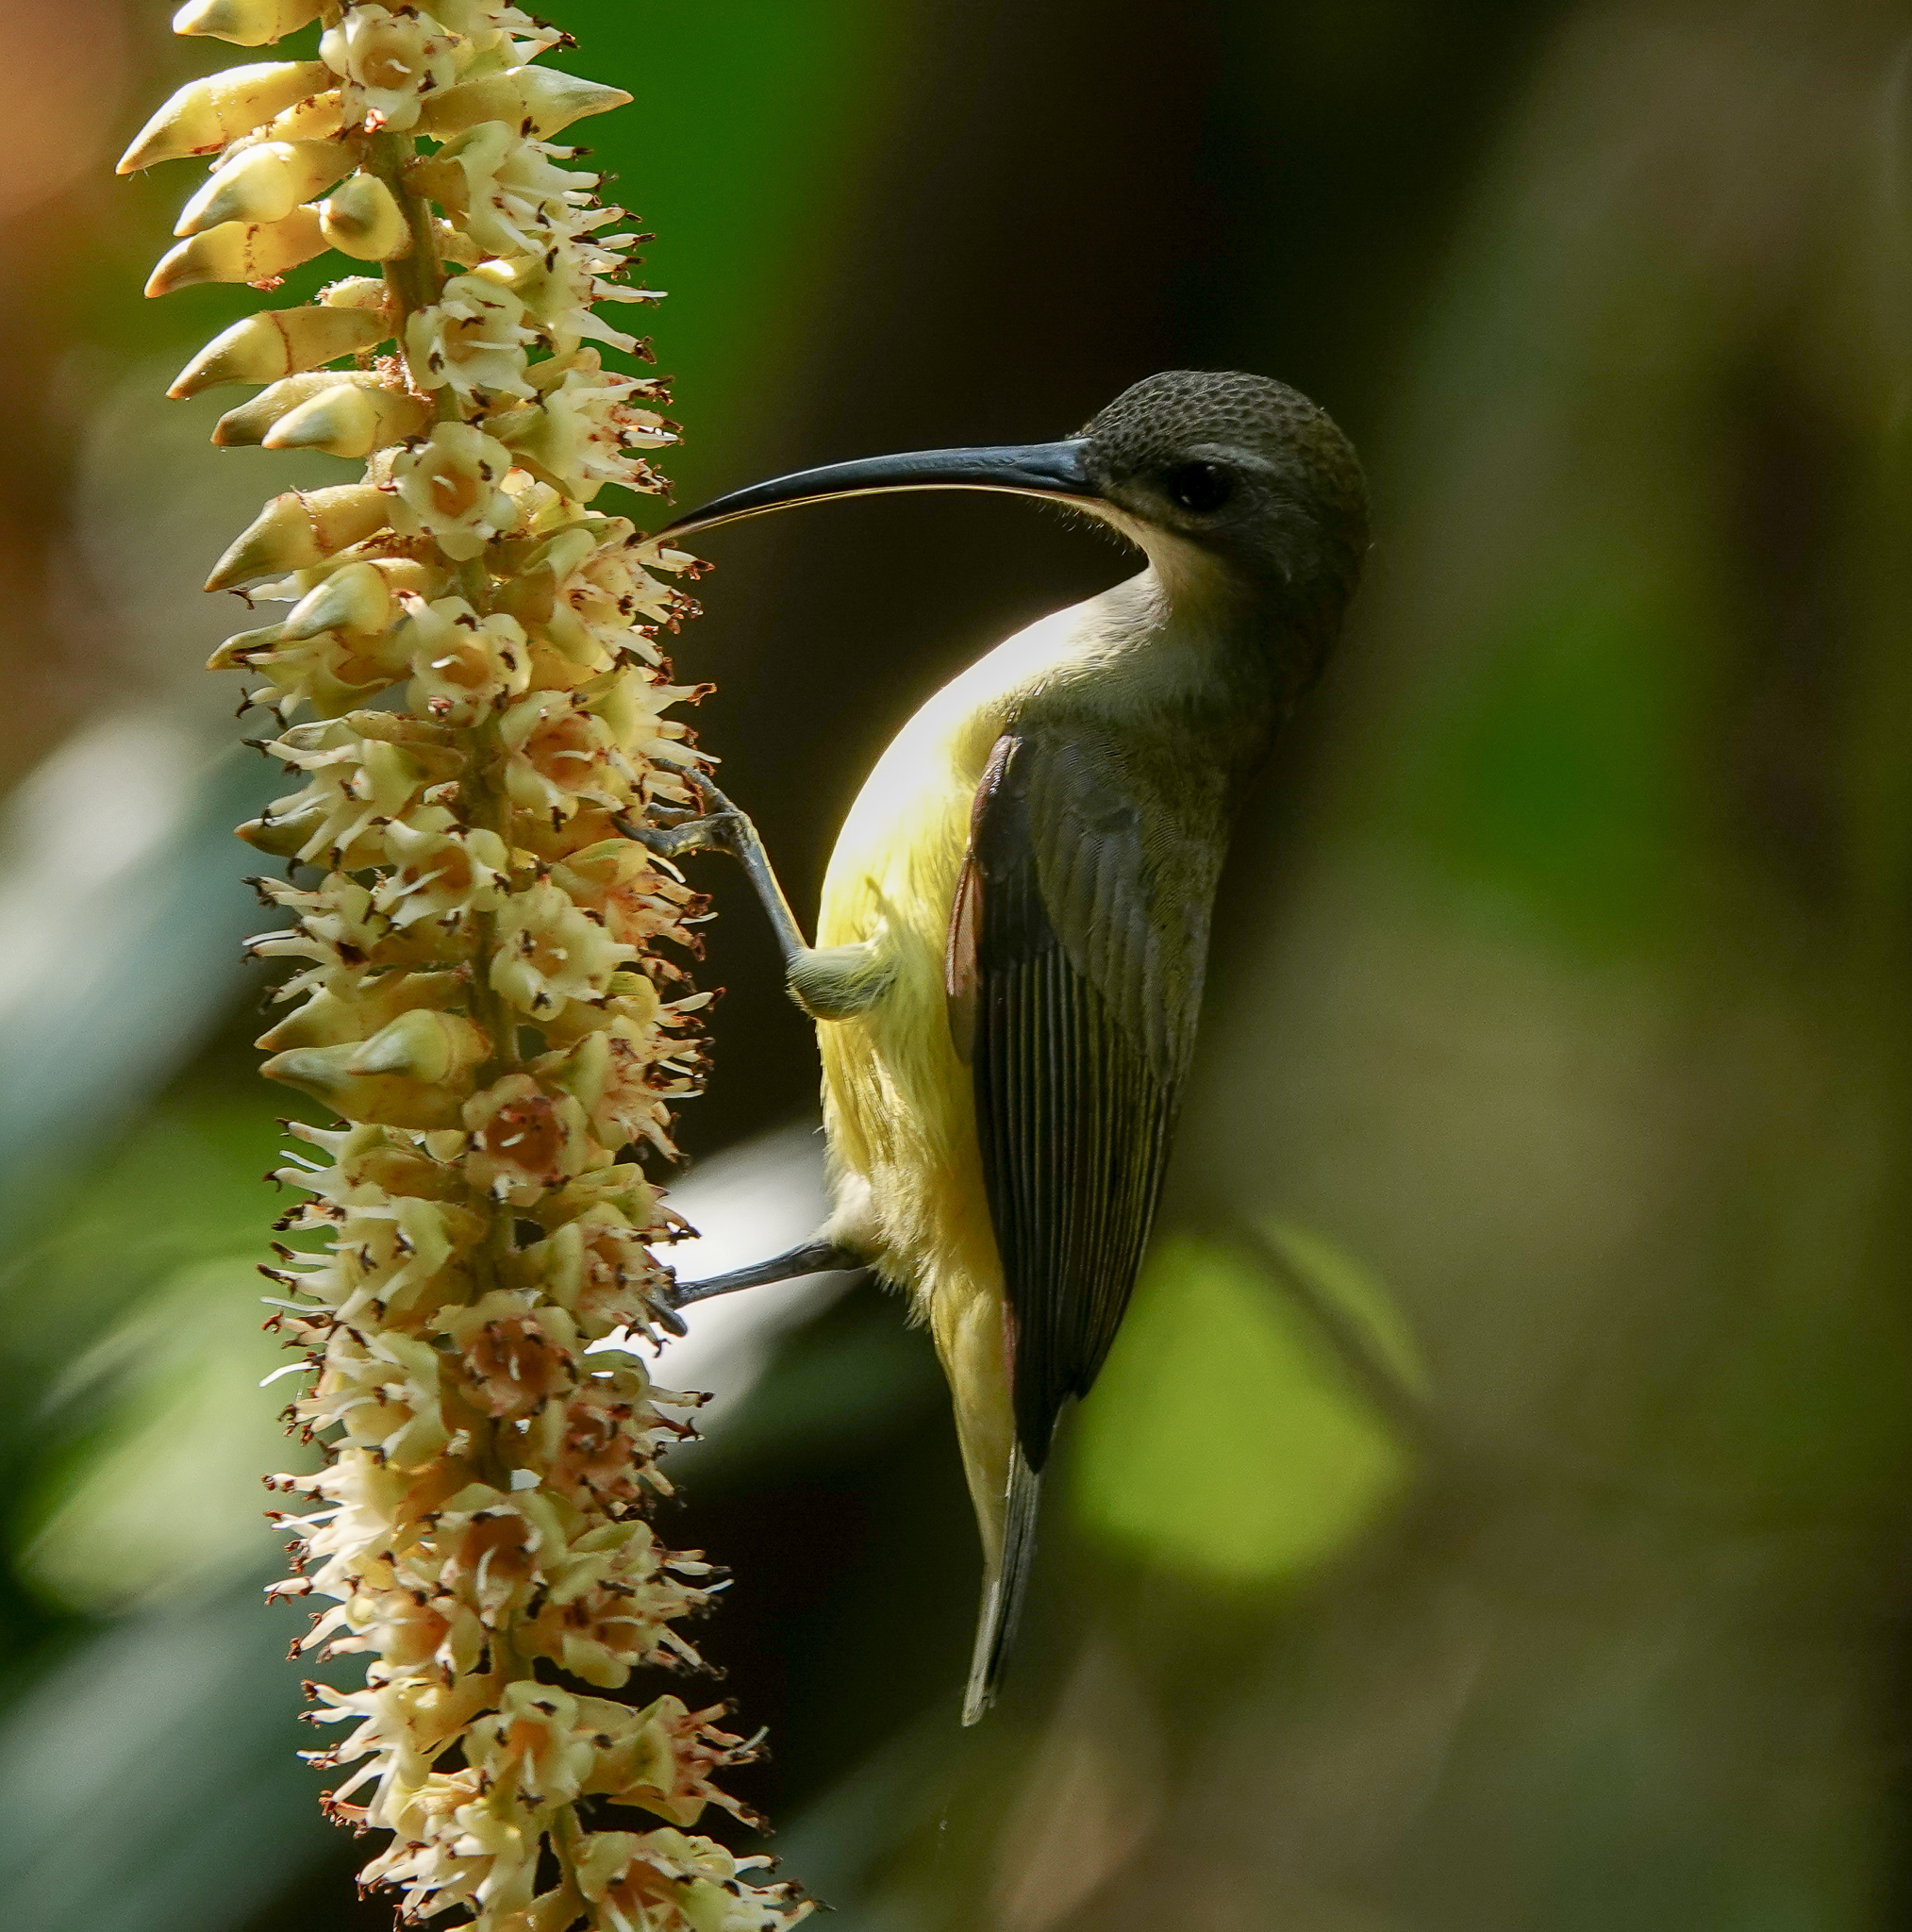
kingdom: Animalia
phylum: Chordata
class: Aves
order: Passeriformes
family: Nectariniidae
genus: Arachnothera
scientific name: Arachnothera longirostra
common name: Little spiderhunter
